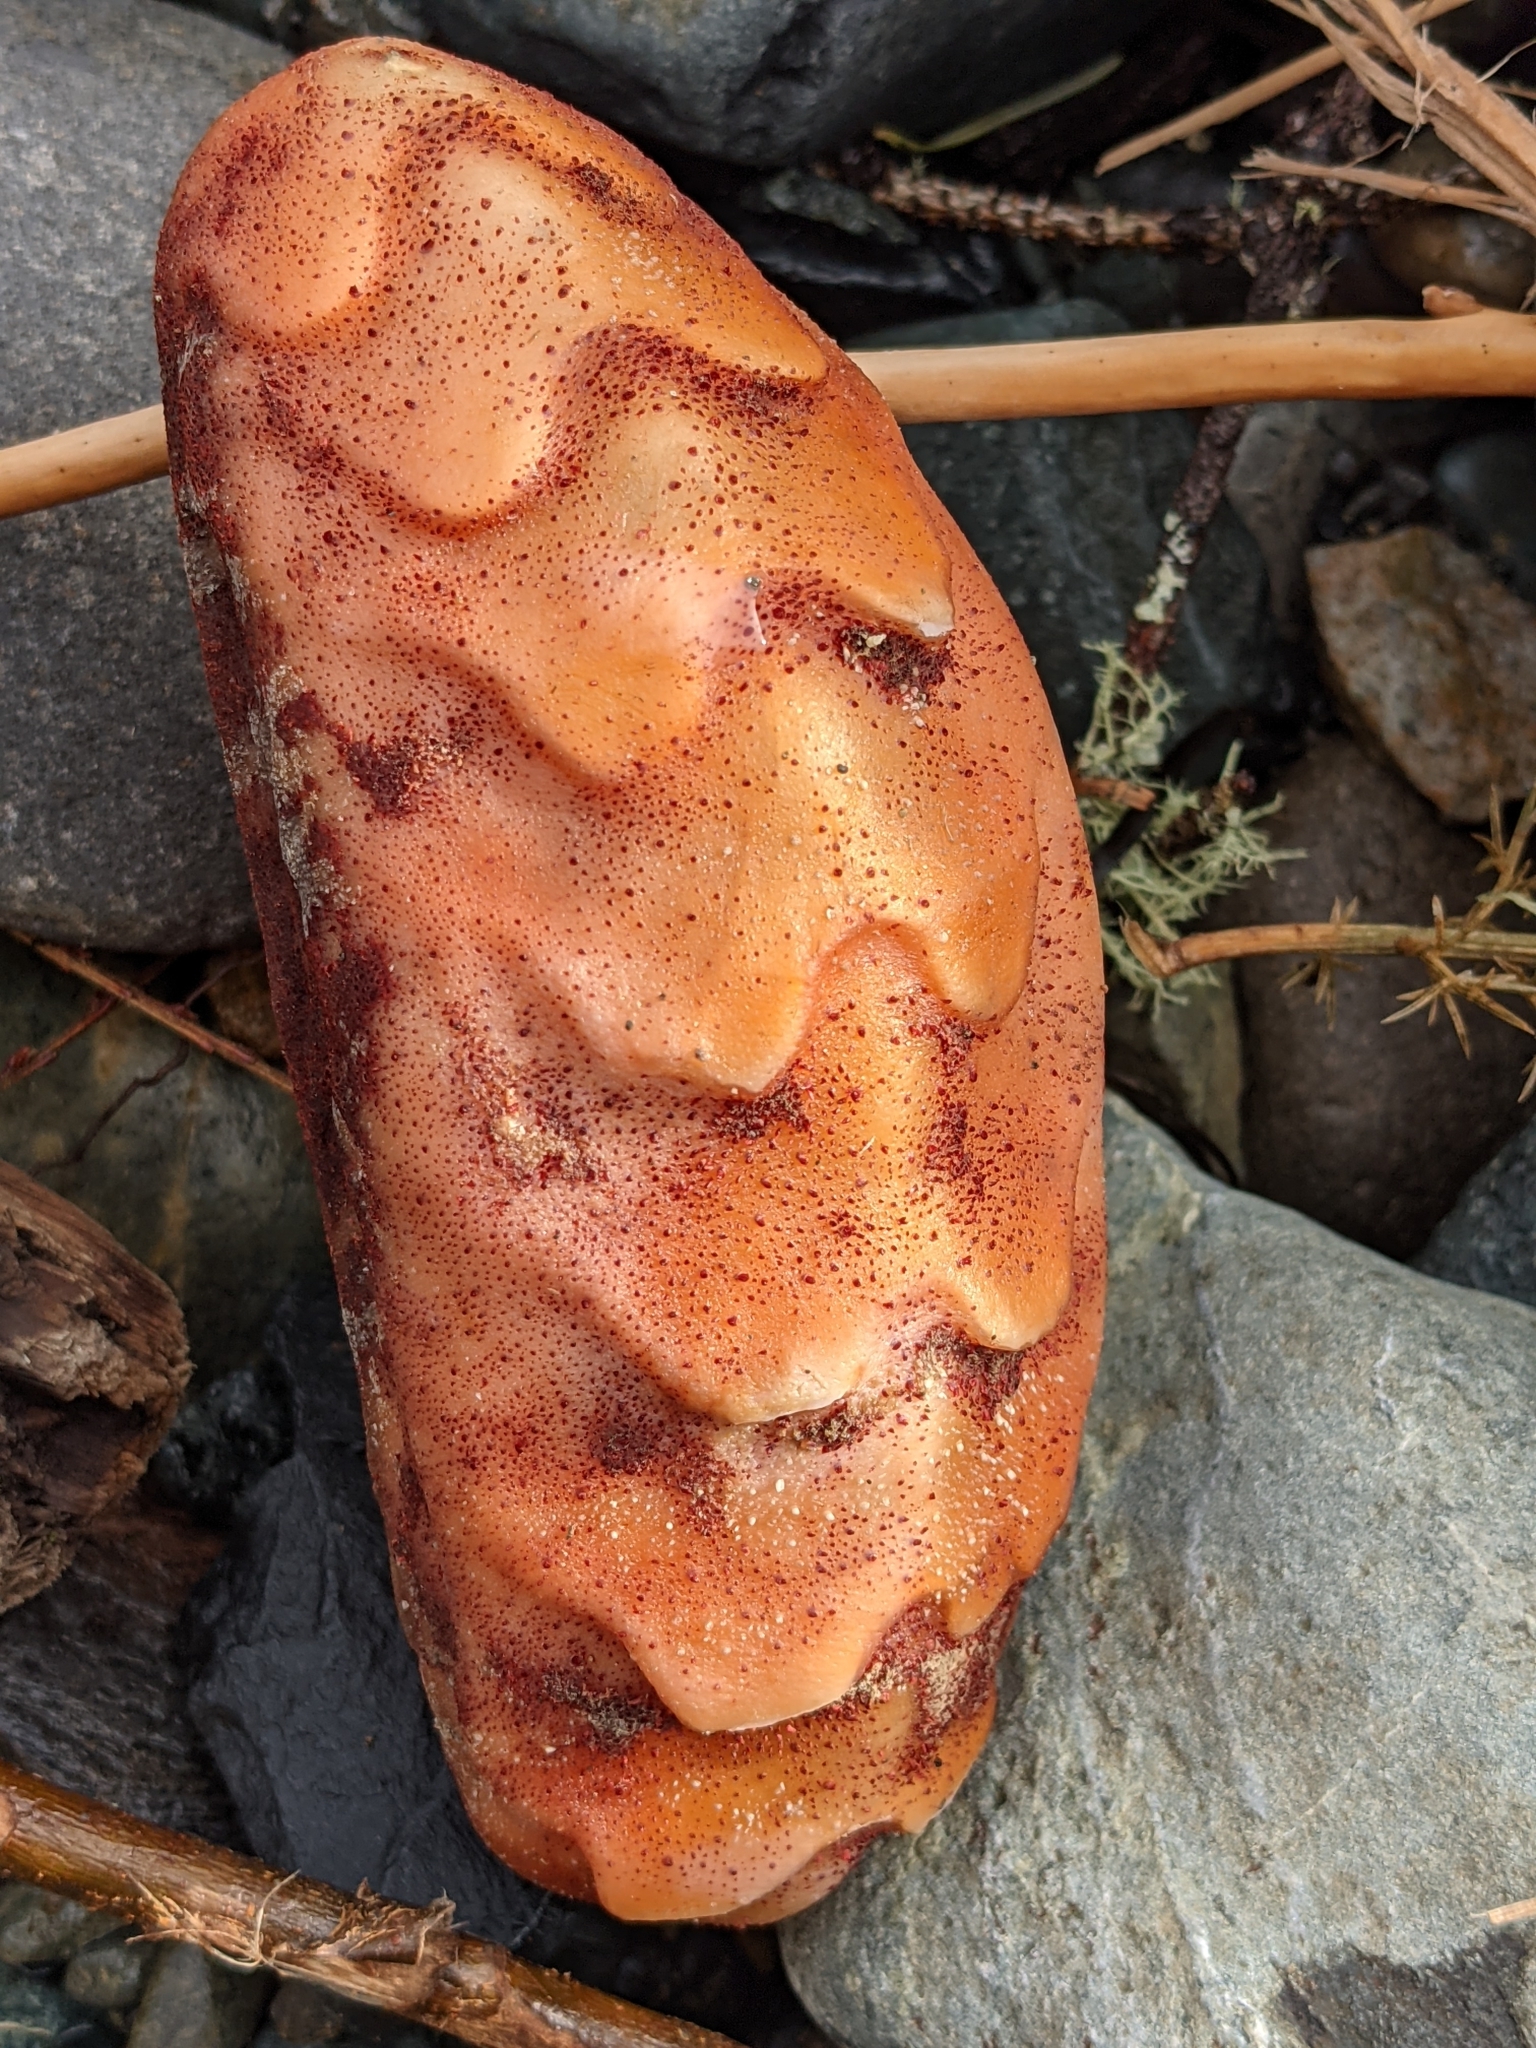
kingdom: Animalia
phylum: Mollusca
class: Polyplacophora
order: Chitonida
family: Acanthochitonidae
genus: Cryptochiton
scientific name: Cryptochiton stelleri
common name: Giant pacific chiton
